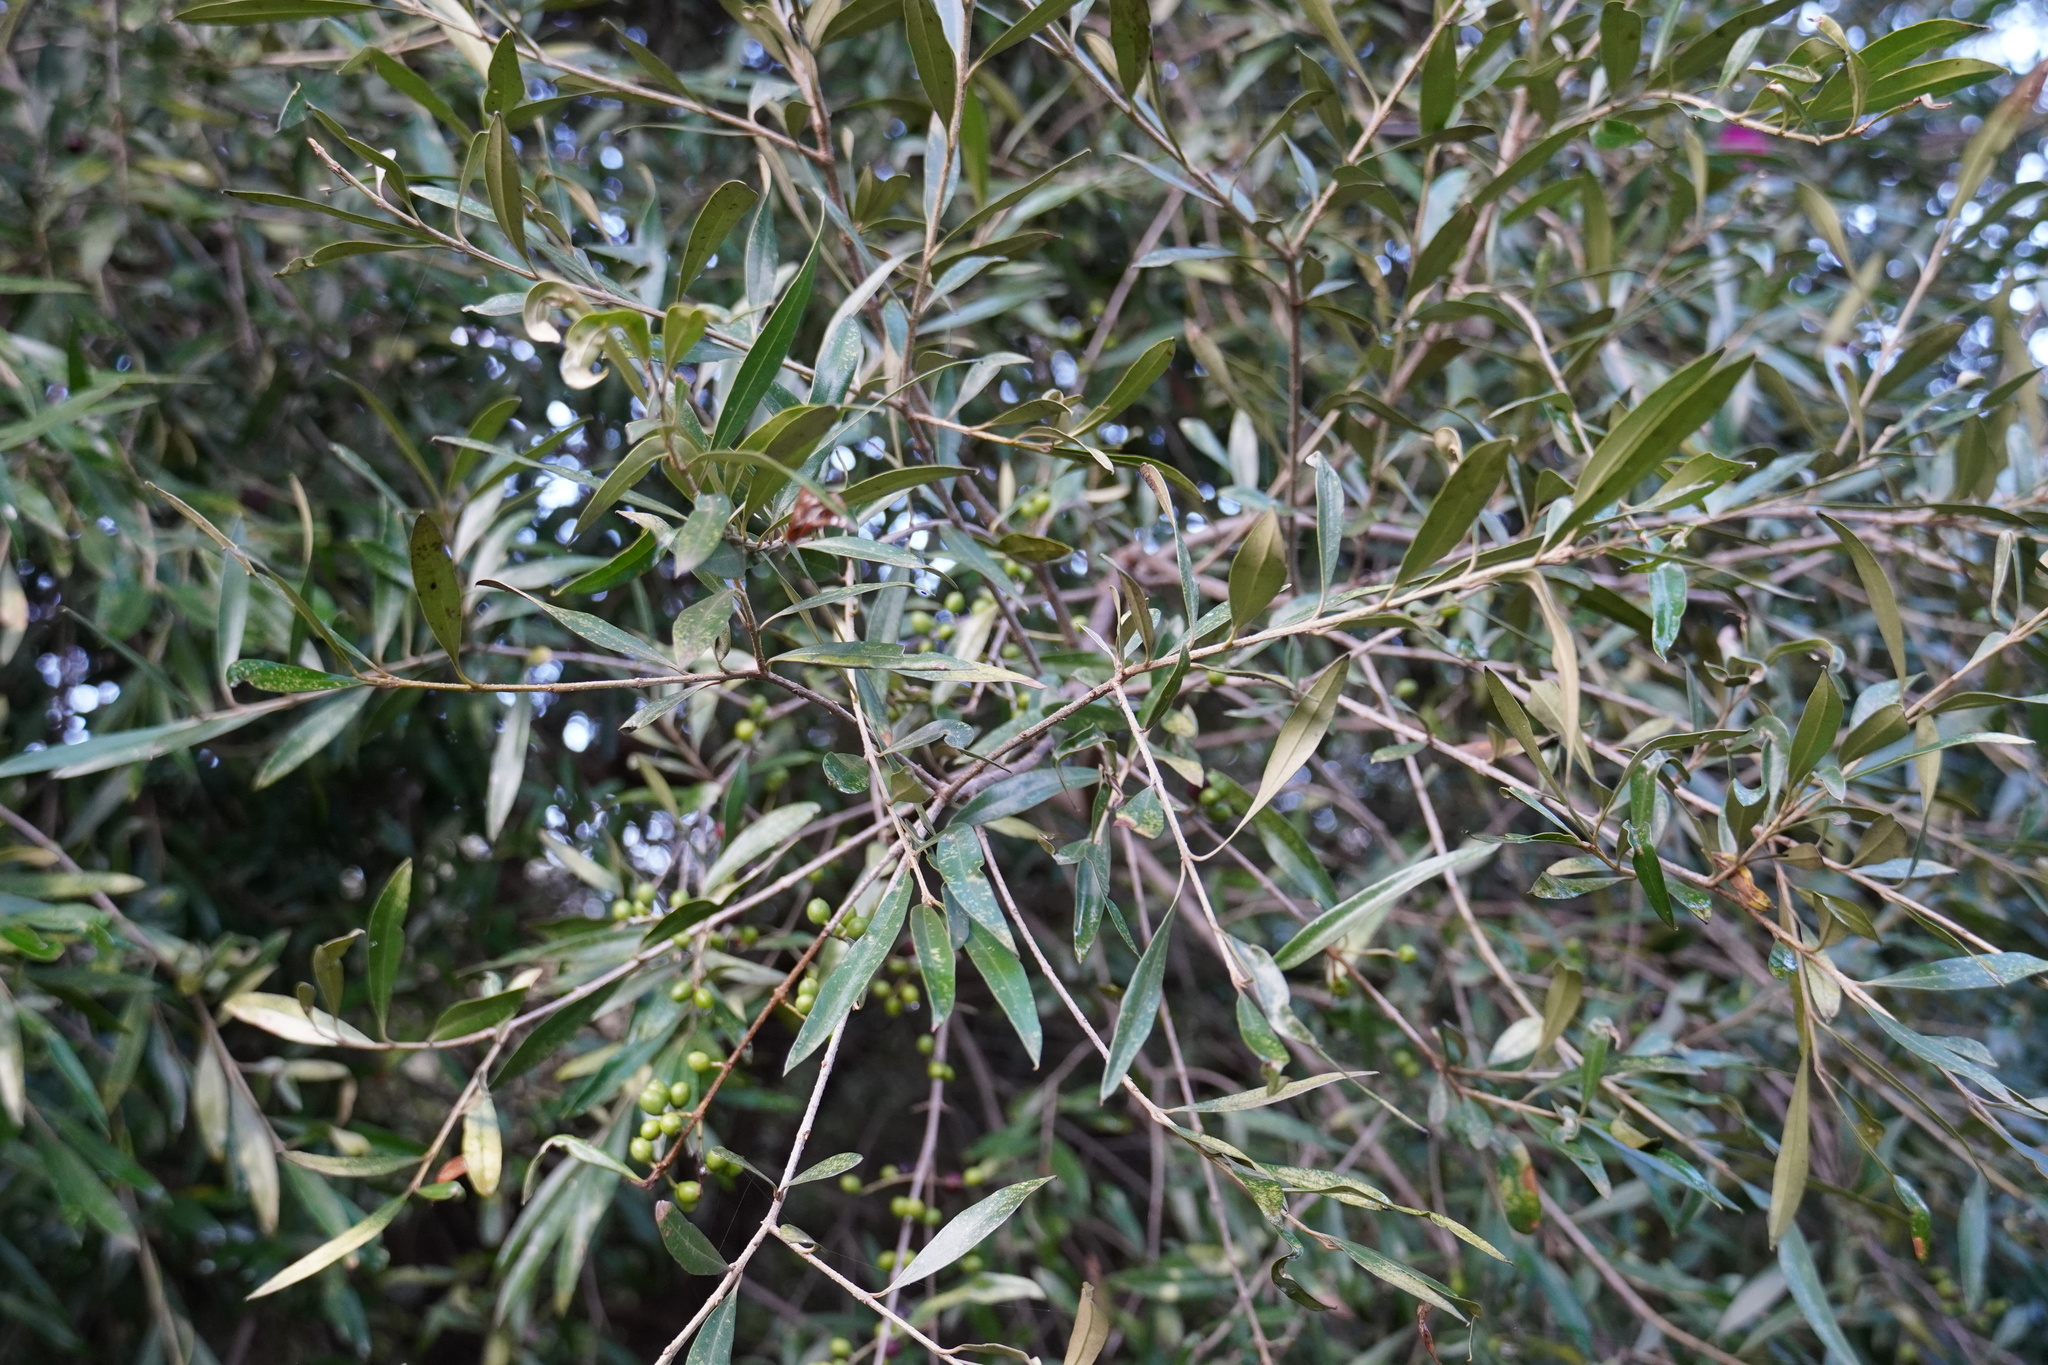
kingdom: Plantae
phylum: Tracheophyta
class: Magnoliopsida
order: Lamiales
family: Oleaceae
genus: Olea
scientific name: Olea europaea
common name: Olive
